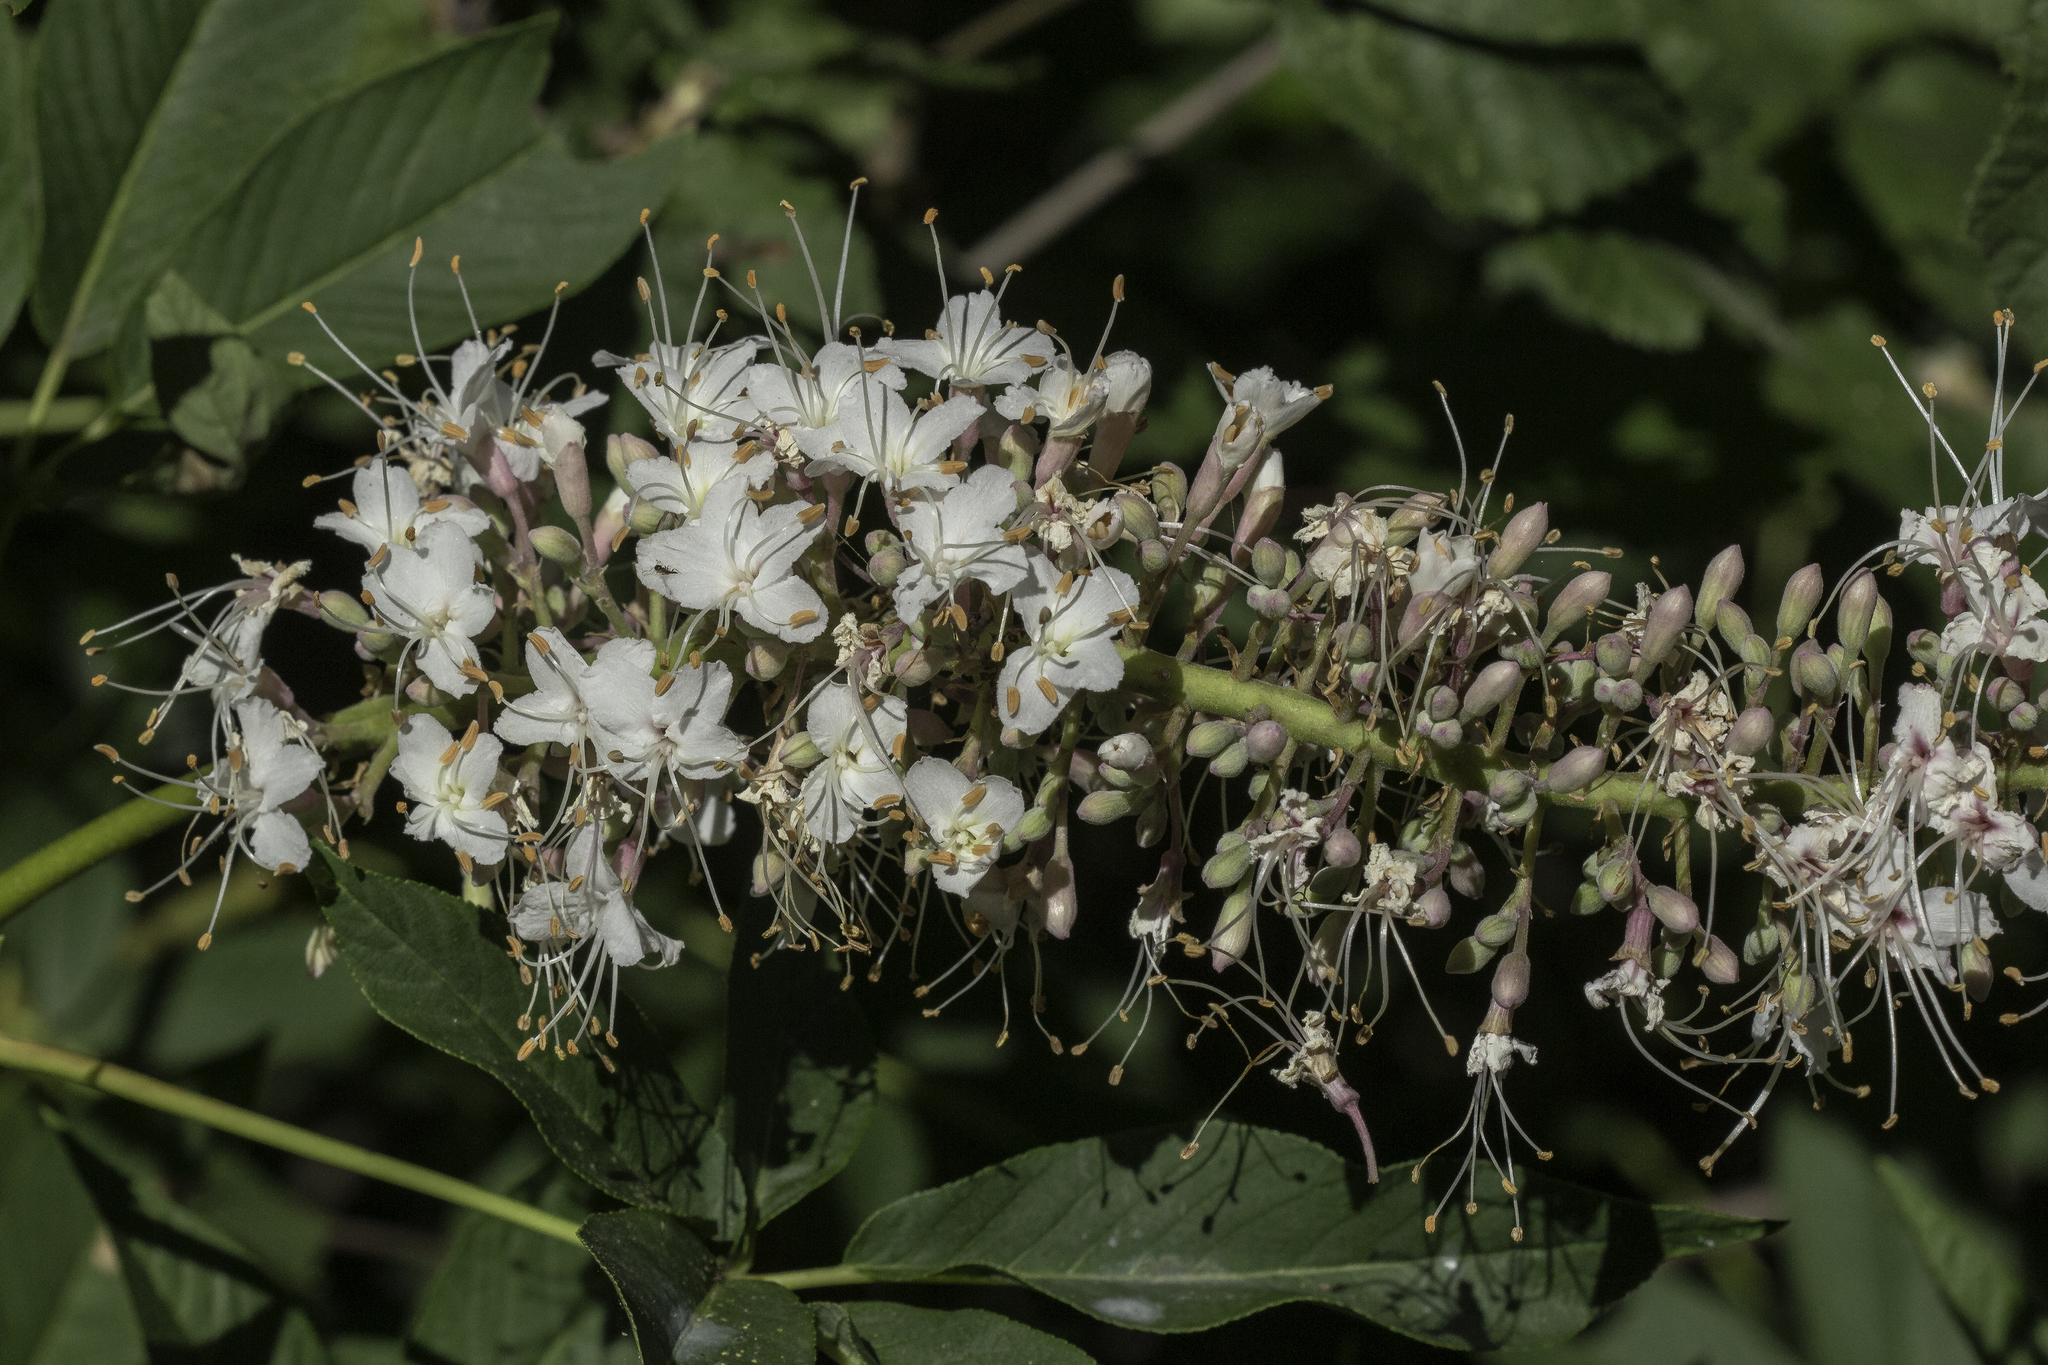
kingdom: Plantae
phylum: Tracheophyta
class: Magnoliopsida
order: Sapindales
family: Sapindaceae
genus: Aesculus
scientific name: Aesculus californica
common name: California buckeye
